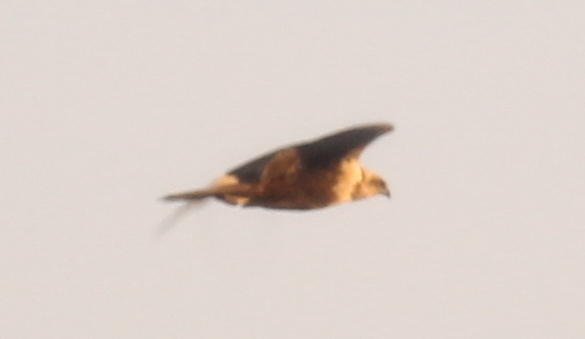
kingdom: Animalia
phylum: Chordata
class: Aves
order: Accipitriformes
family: Accipitridae
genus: Circus
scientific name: Circus aeruginosus
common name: Western marsh harrier
